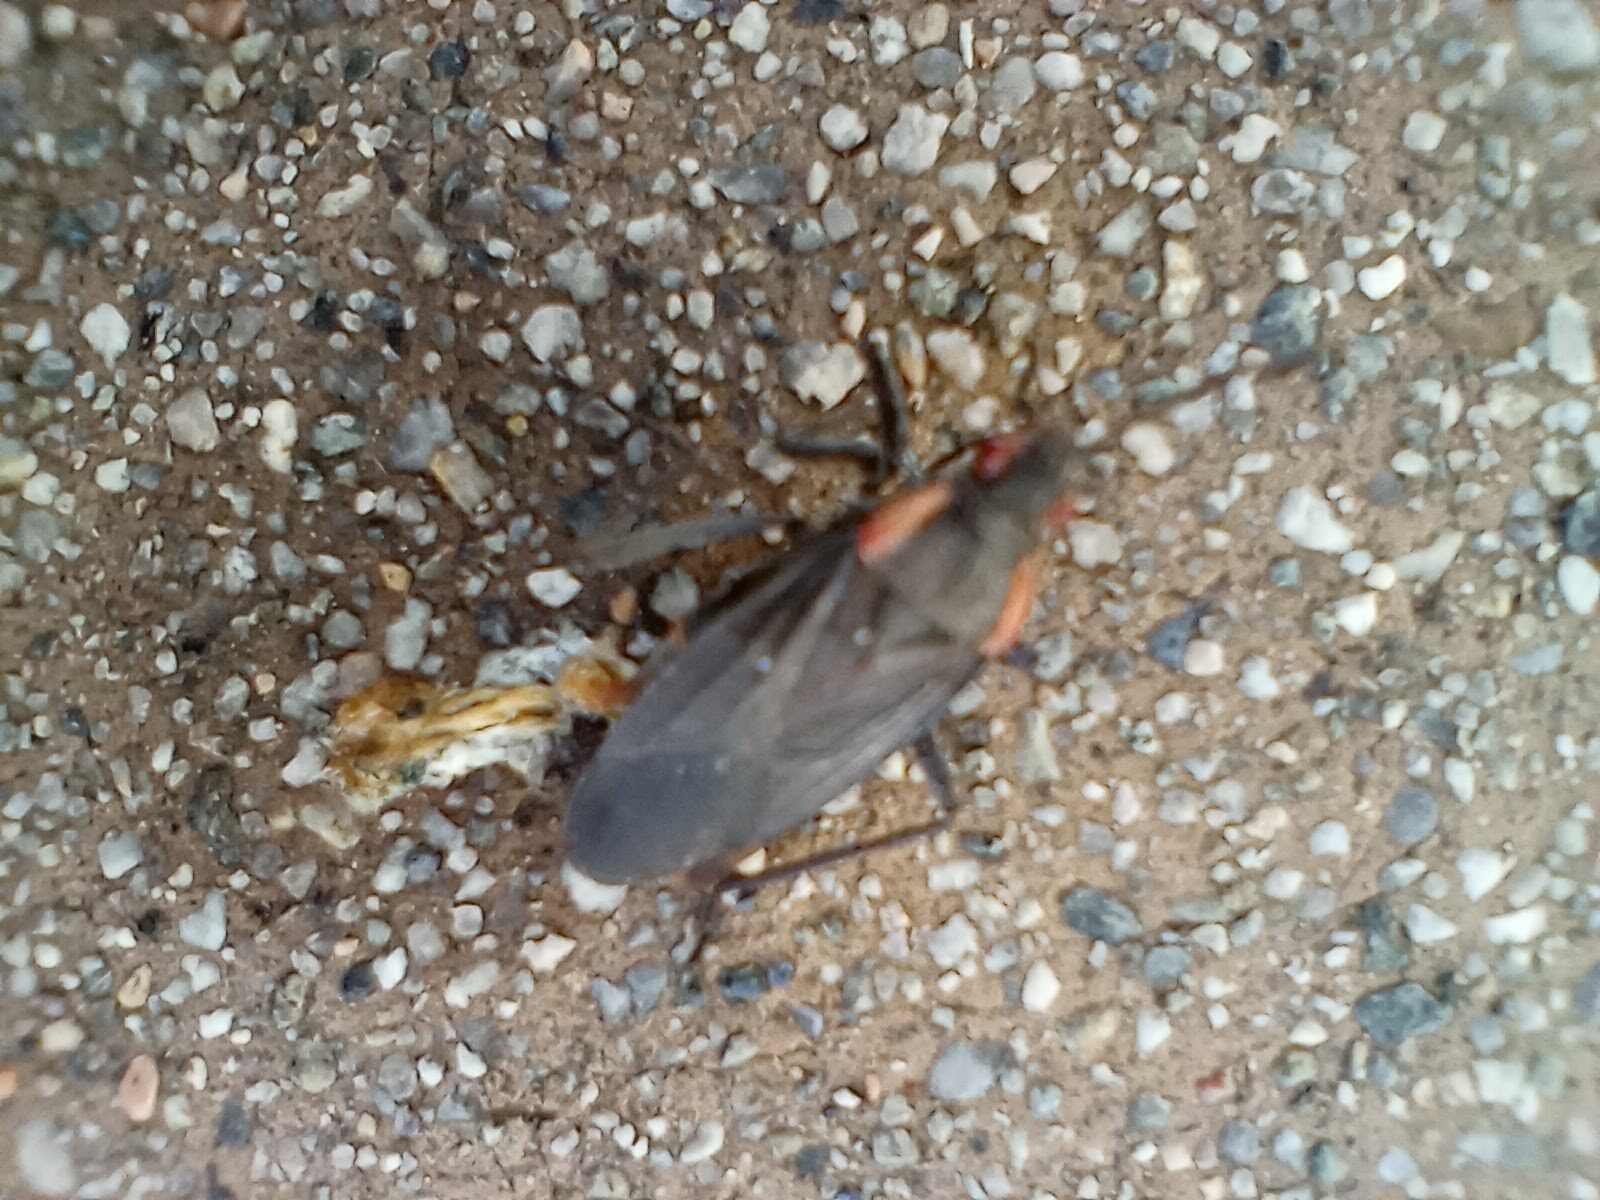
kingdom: Animalia
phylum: Arthropoda
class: Insecta
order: Hemiptera
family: Rhopalidae
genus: Jadera
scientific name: Jadera haematoloma
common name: Red-shouldered bug
